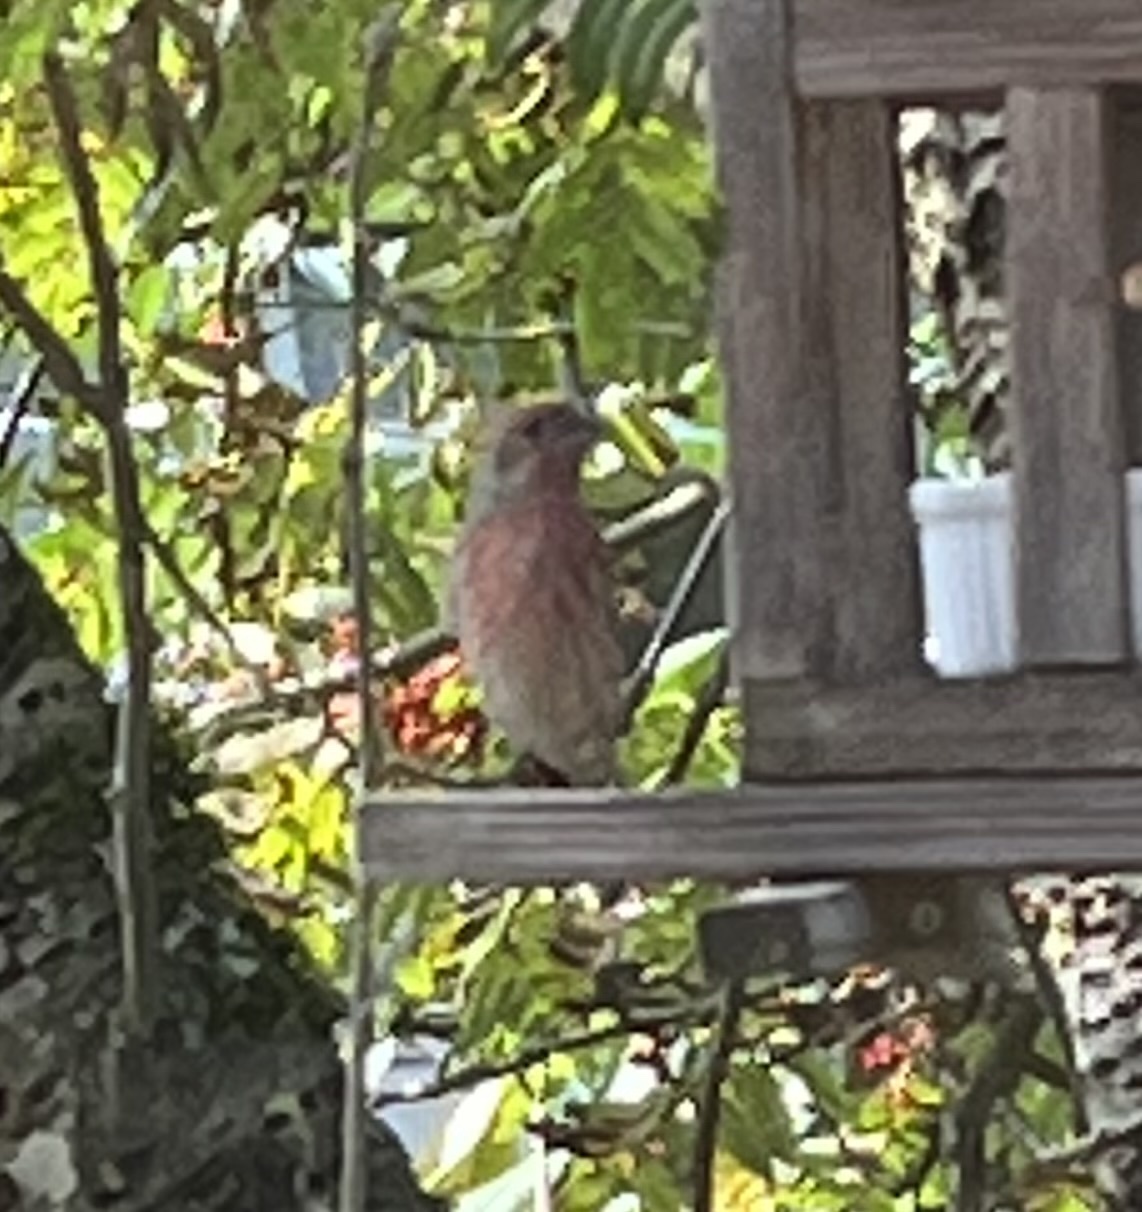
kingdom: Animalia
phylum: Chordata
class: Aves
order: Passeriformes
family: Fringillidae
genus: Haemorhous
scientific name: Haemorhous mexicanus
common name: House finch
